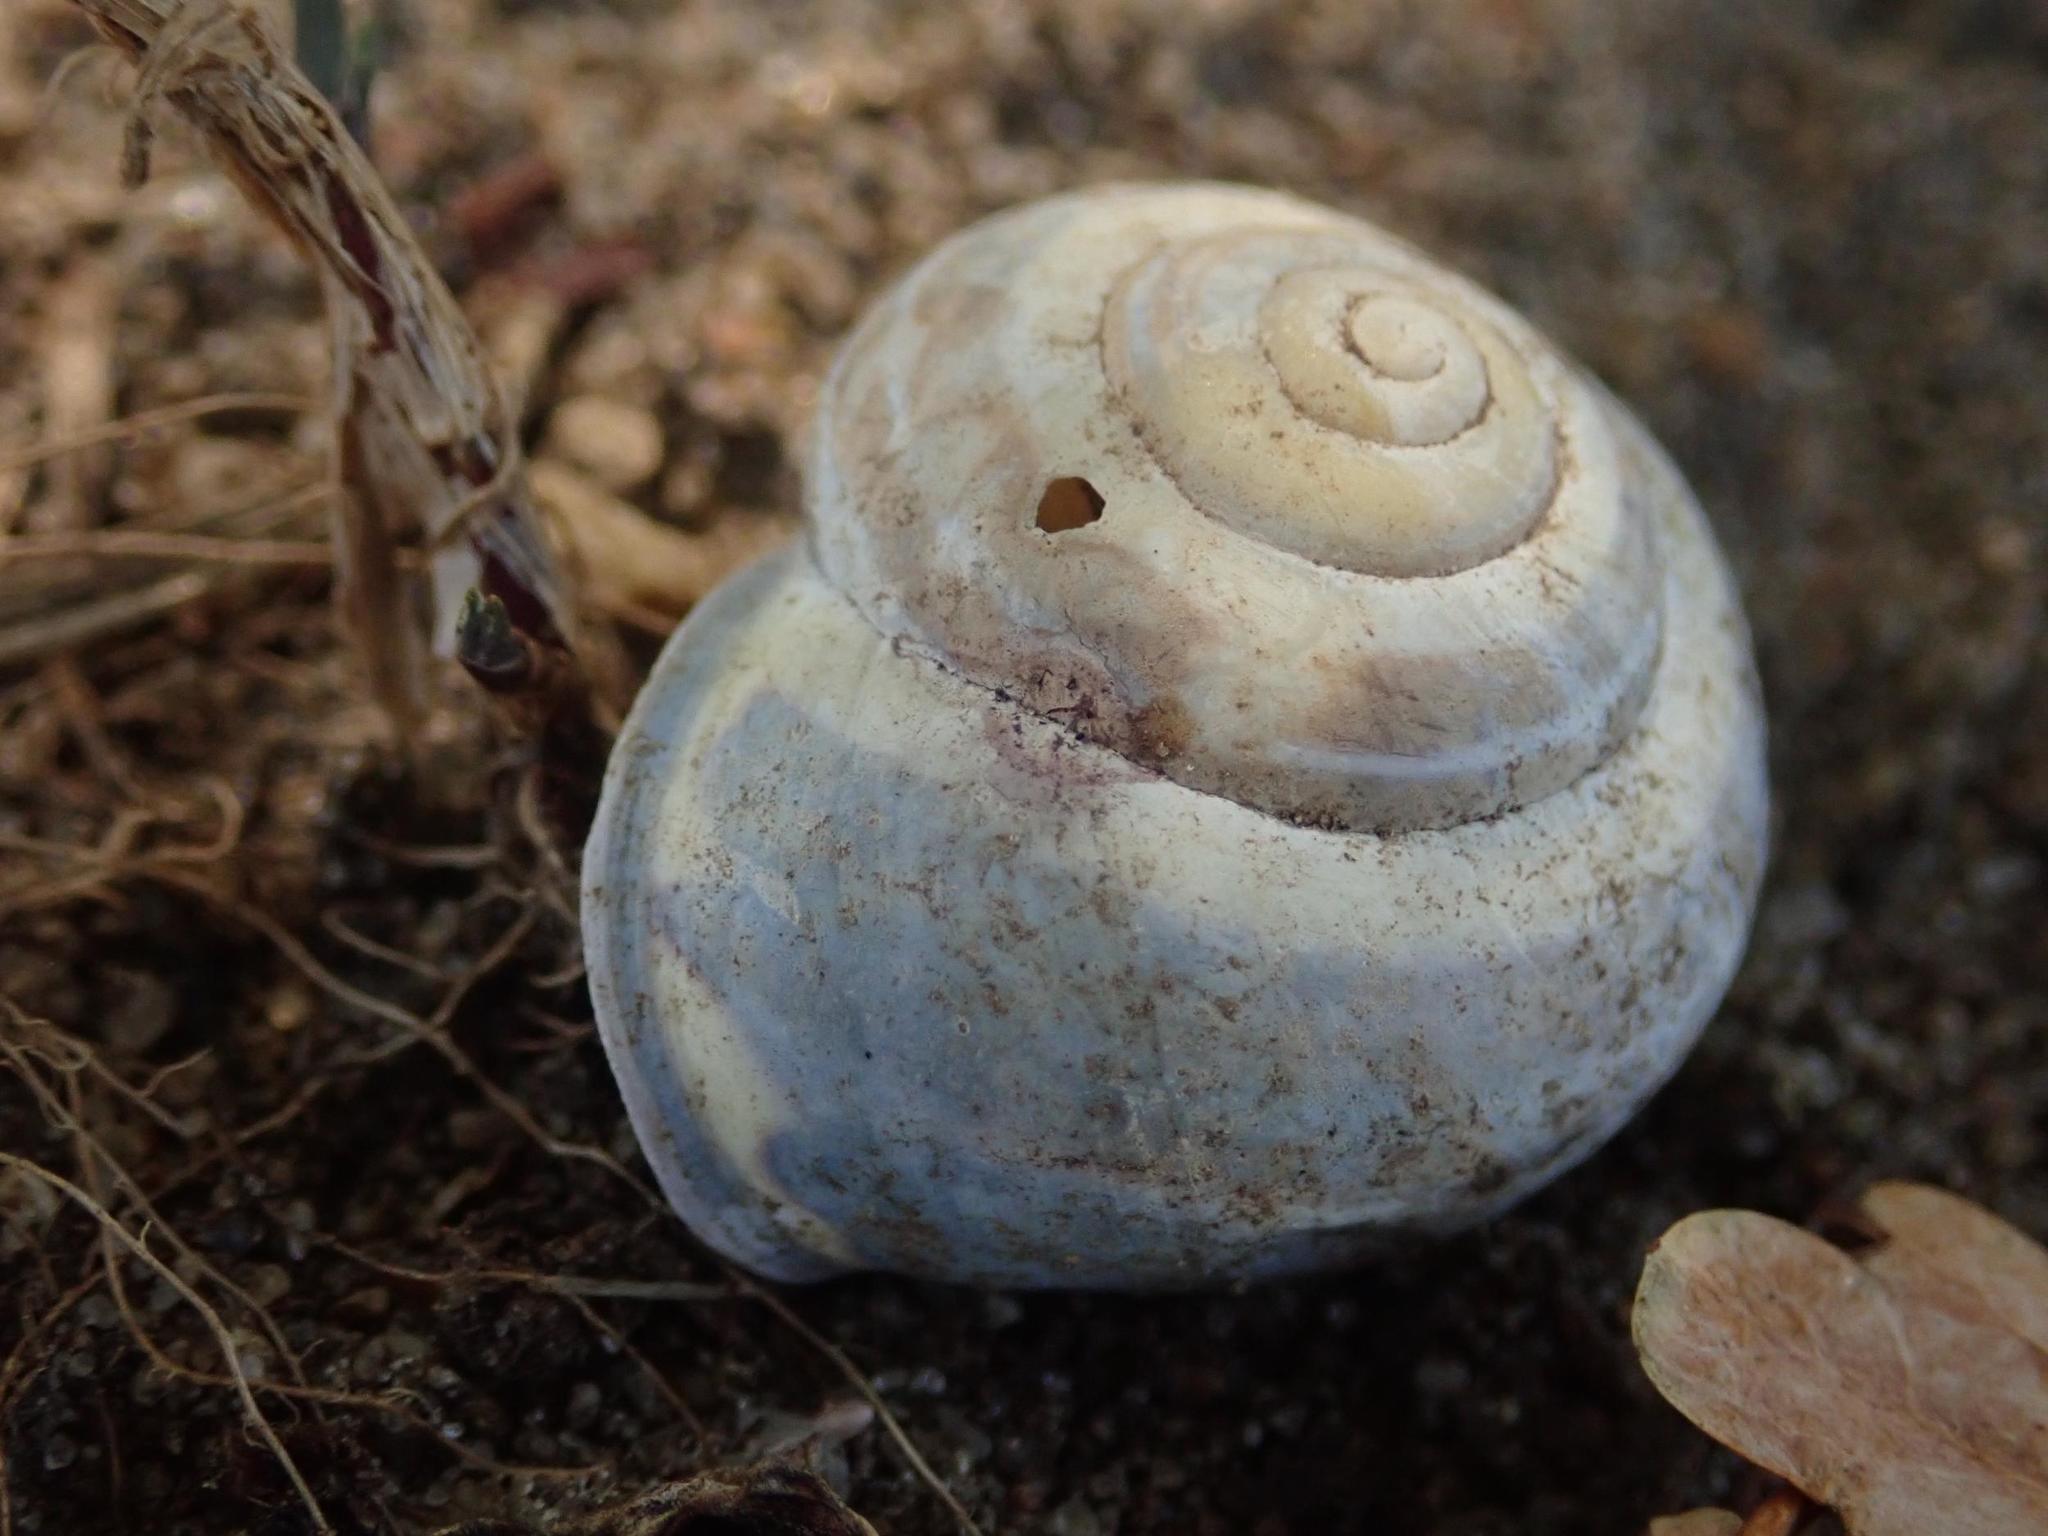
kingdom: Animalia
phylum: Mollusca
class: Gastropoda
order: Stylommatophora
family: Helicidae
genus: Cepaea
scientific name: Cepaea nemoralis
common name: Grovesnail
